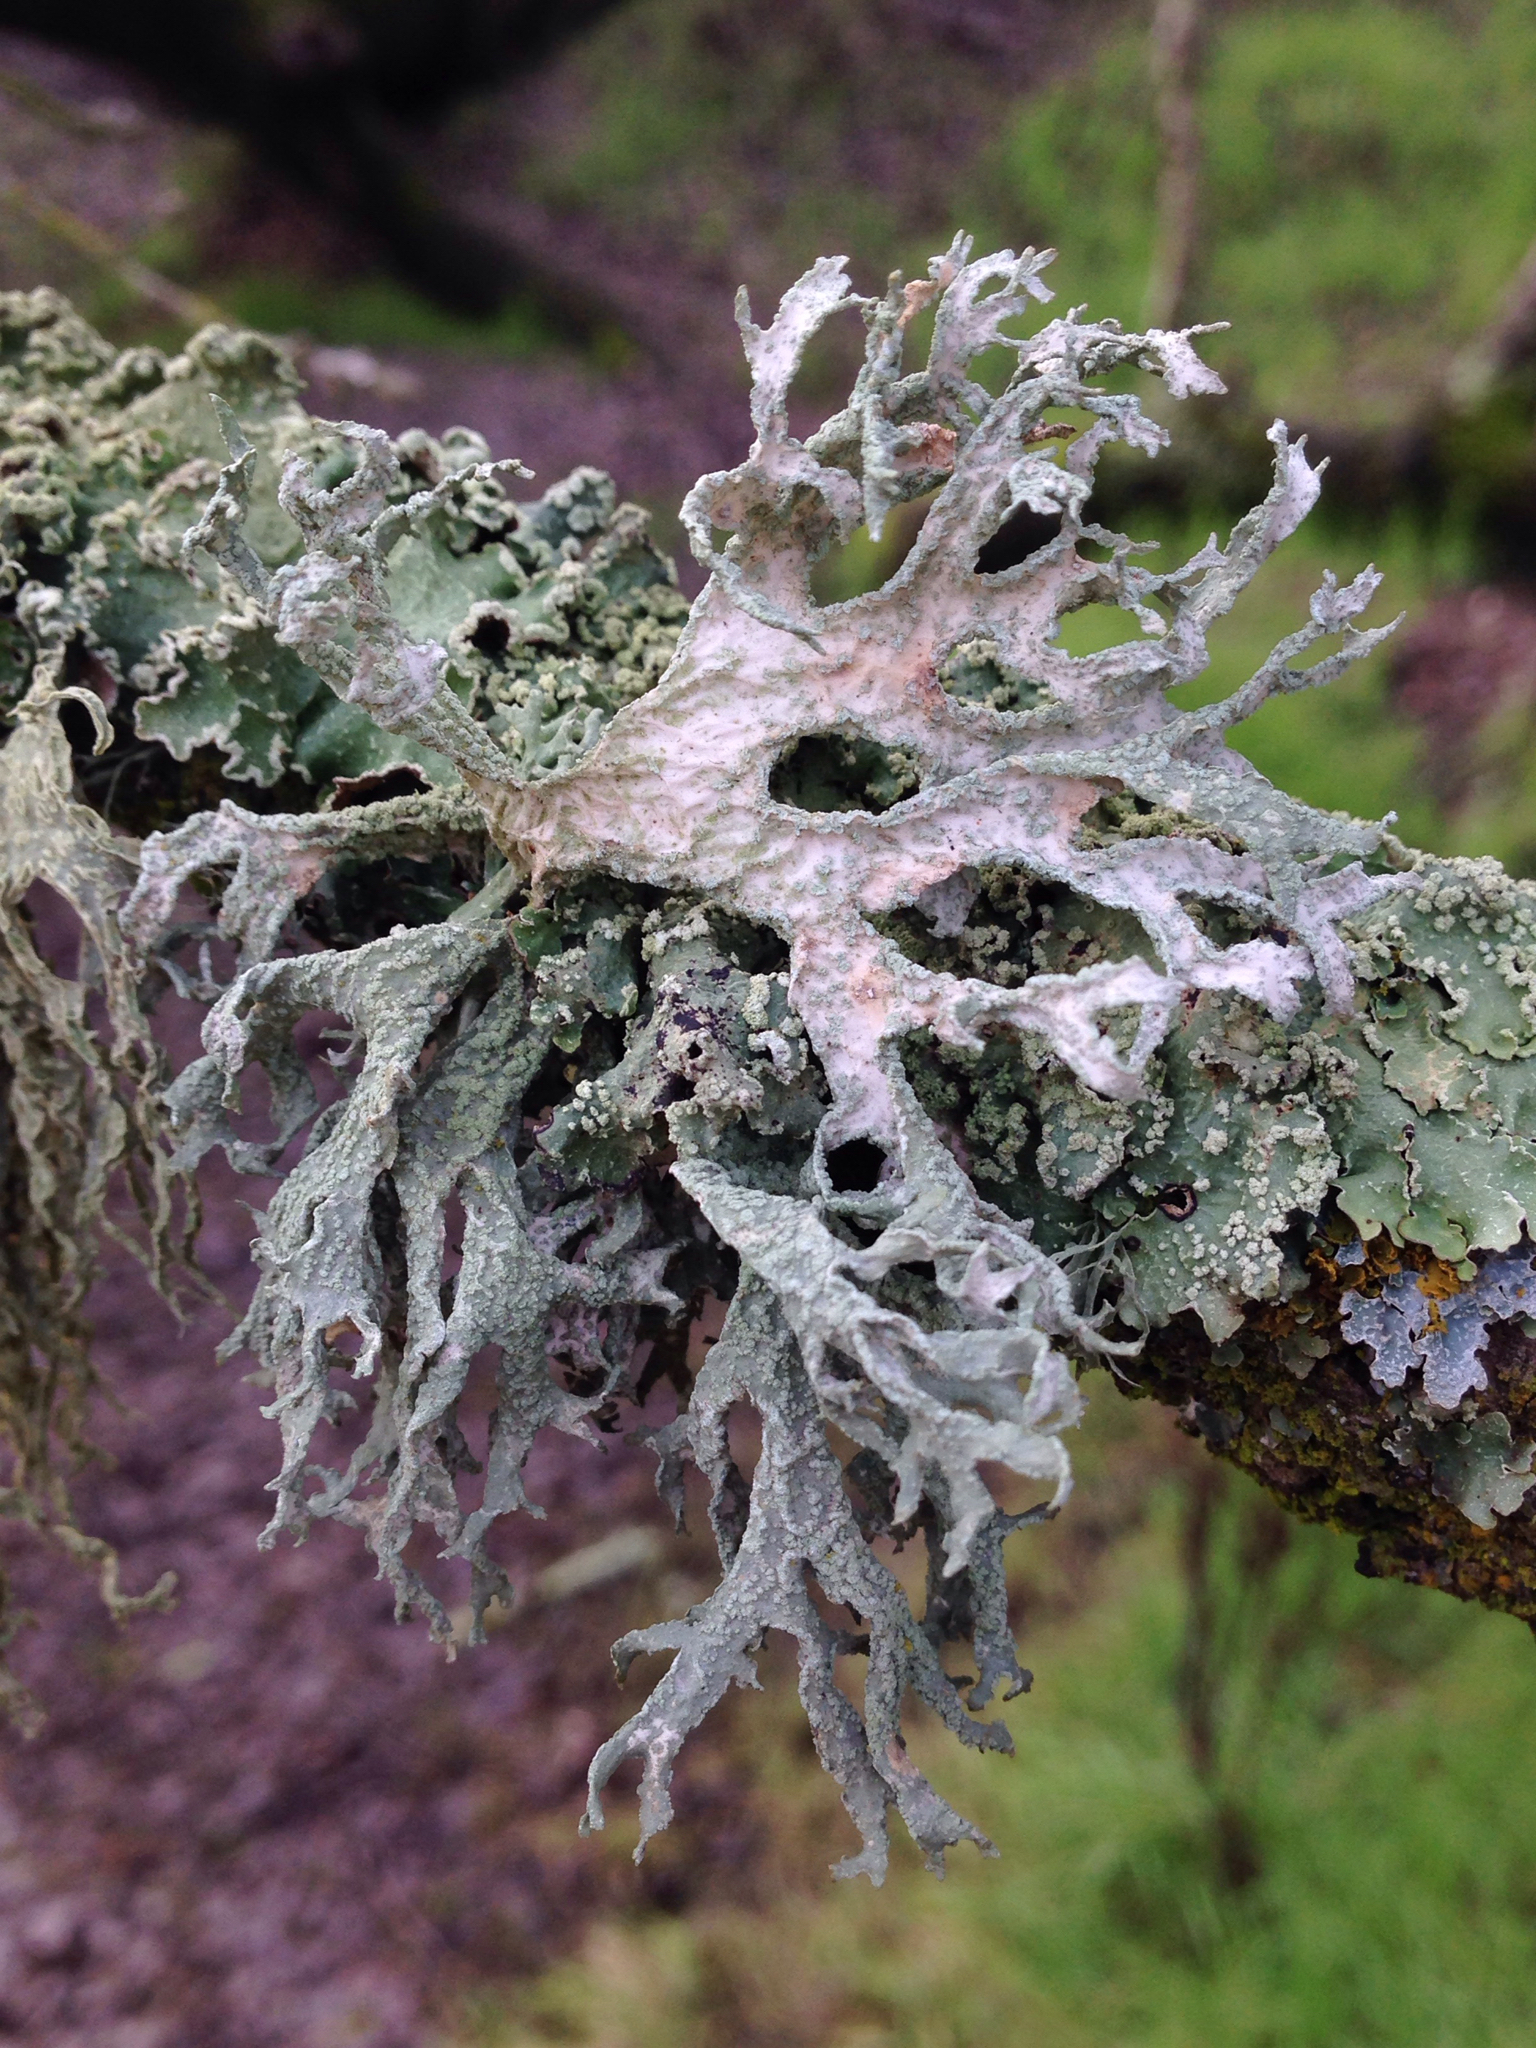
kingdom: Fungi
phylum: Ascomycota
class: Lecanoromycetes
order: Lecanorales
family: Parmeliaceae
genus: Evernia
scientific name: Evernia prunastri
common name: Oak moss
